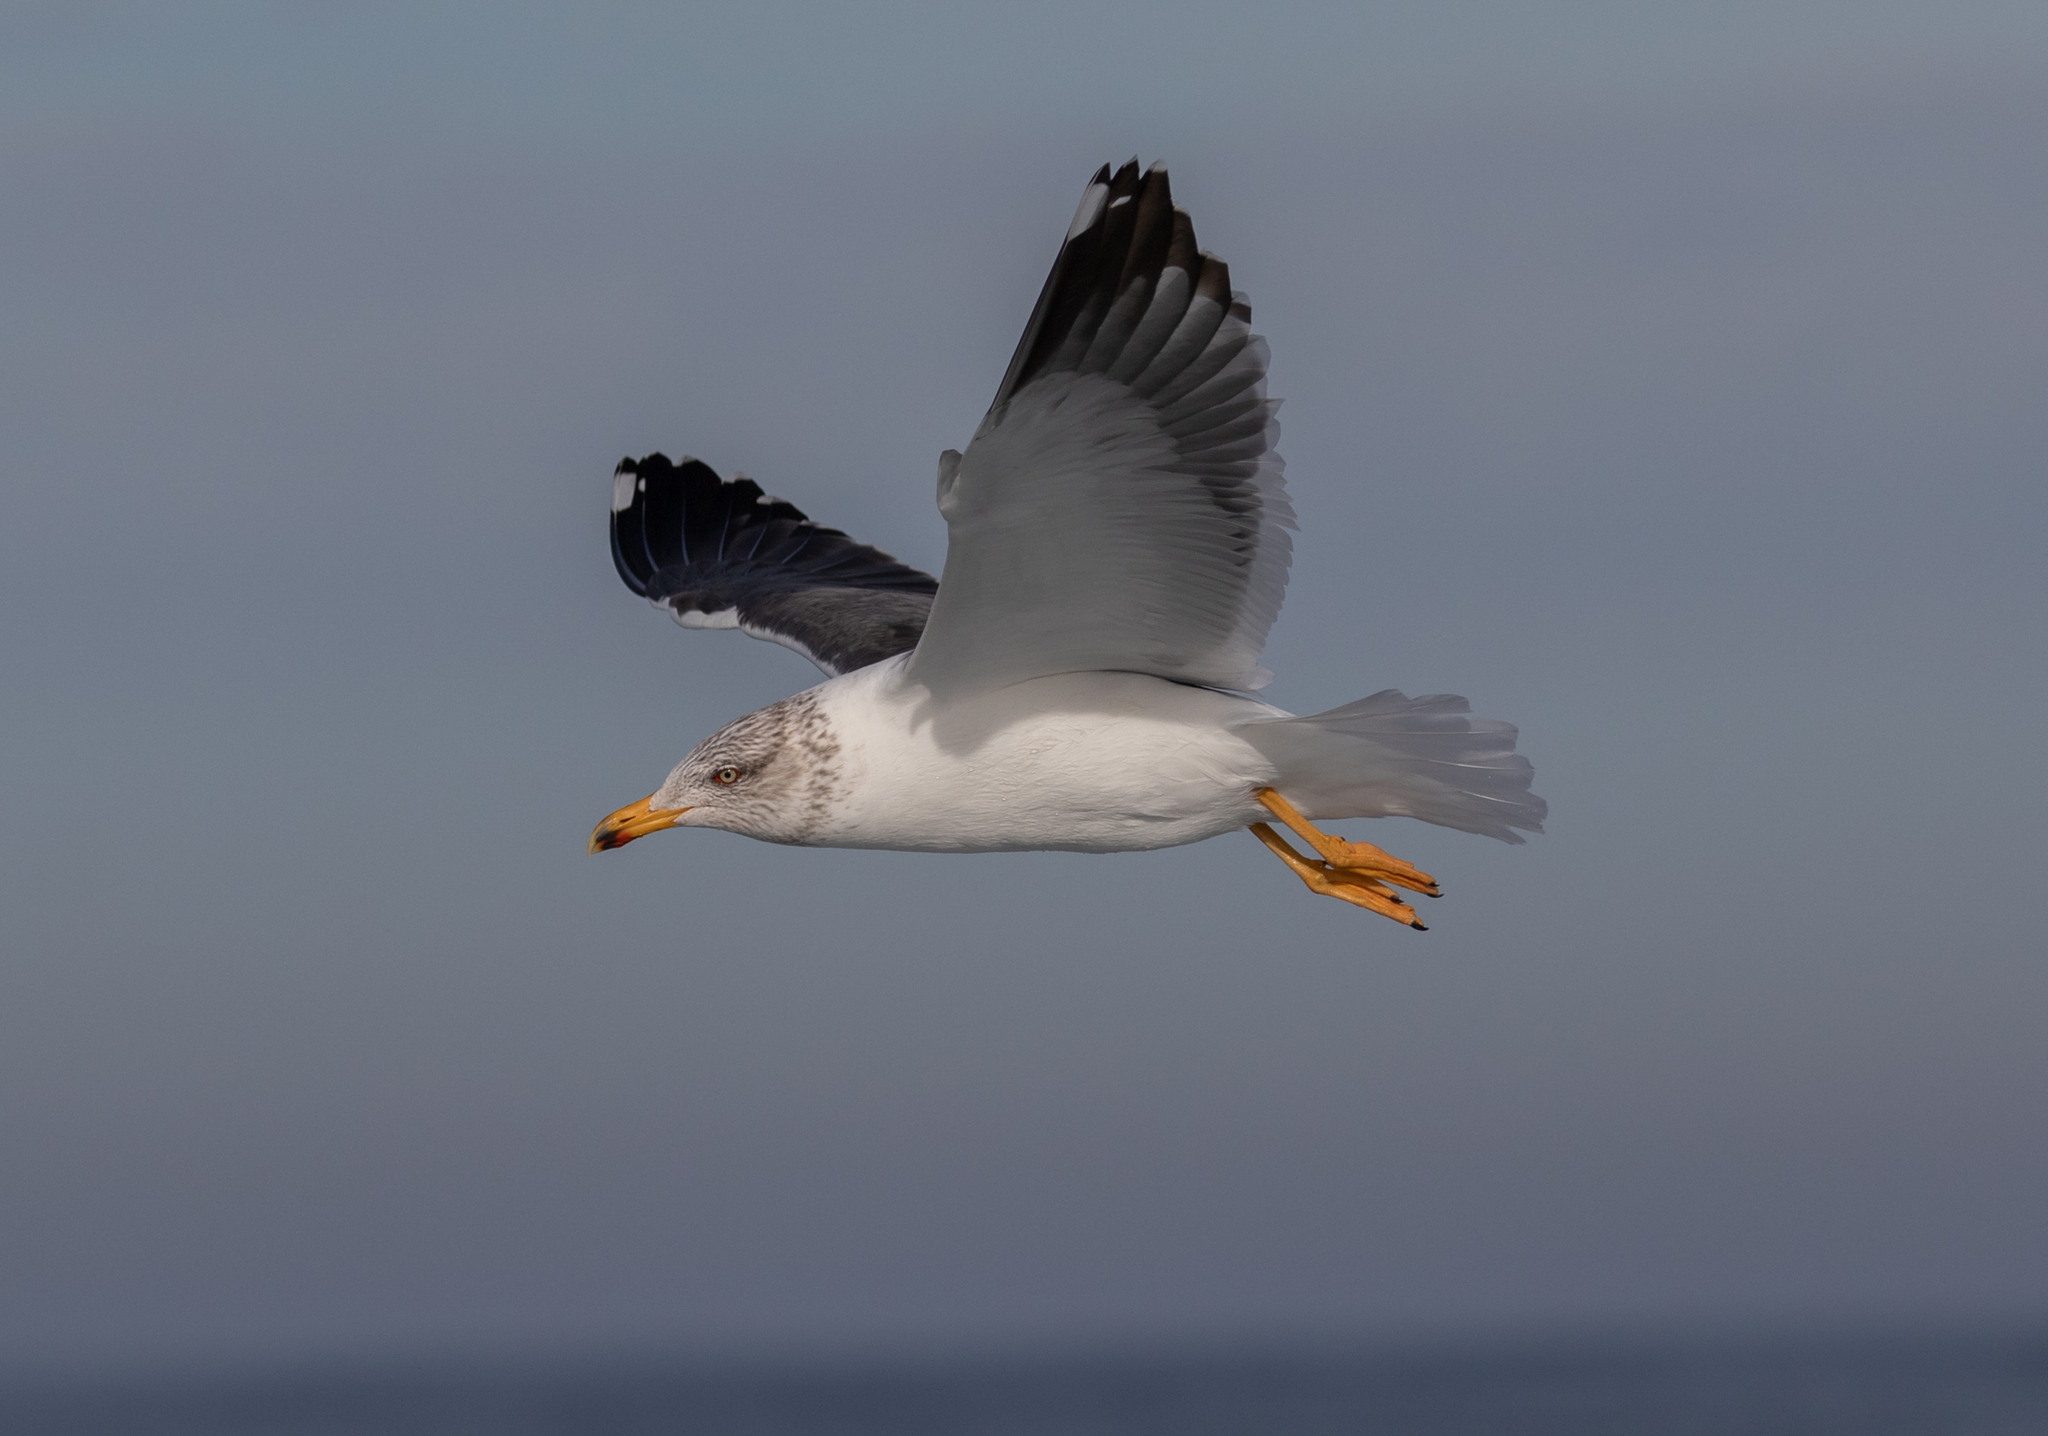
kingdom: Animalia
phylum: Chordata
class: Aves
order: Charadriiformes
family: Laridae
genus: Larus
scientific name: Larus fuscus
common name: Lesser black-backed gull
